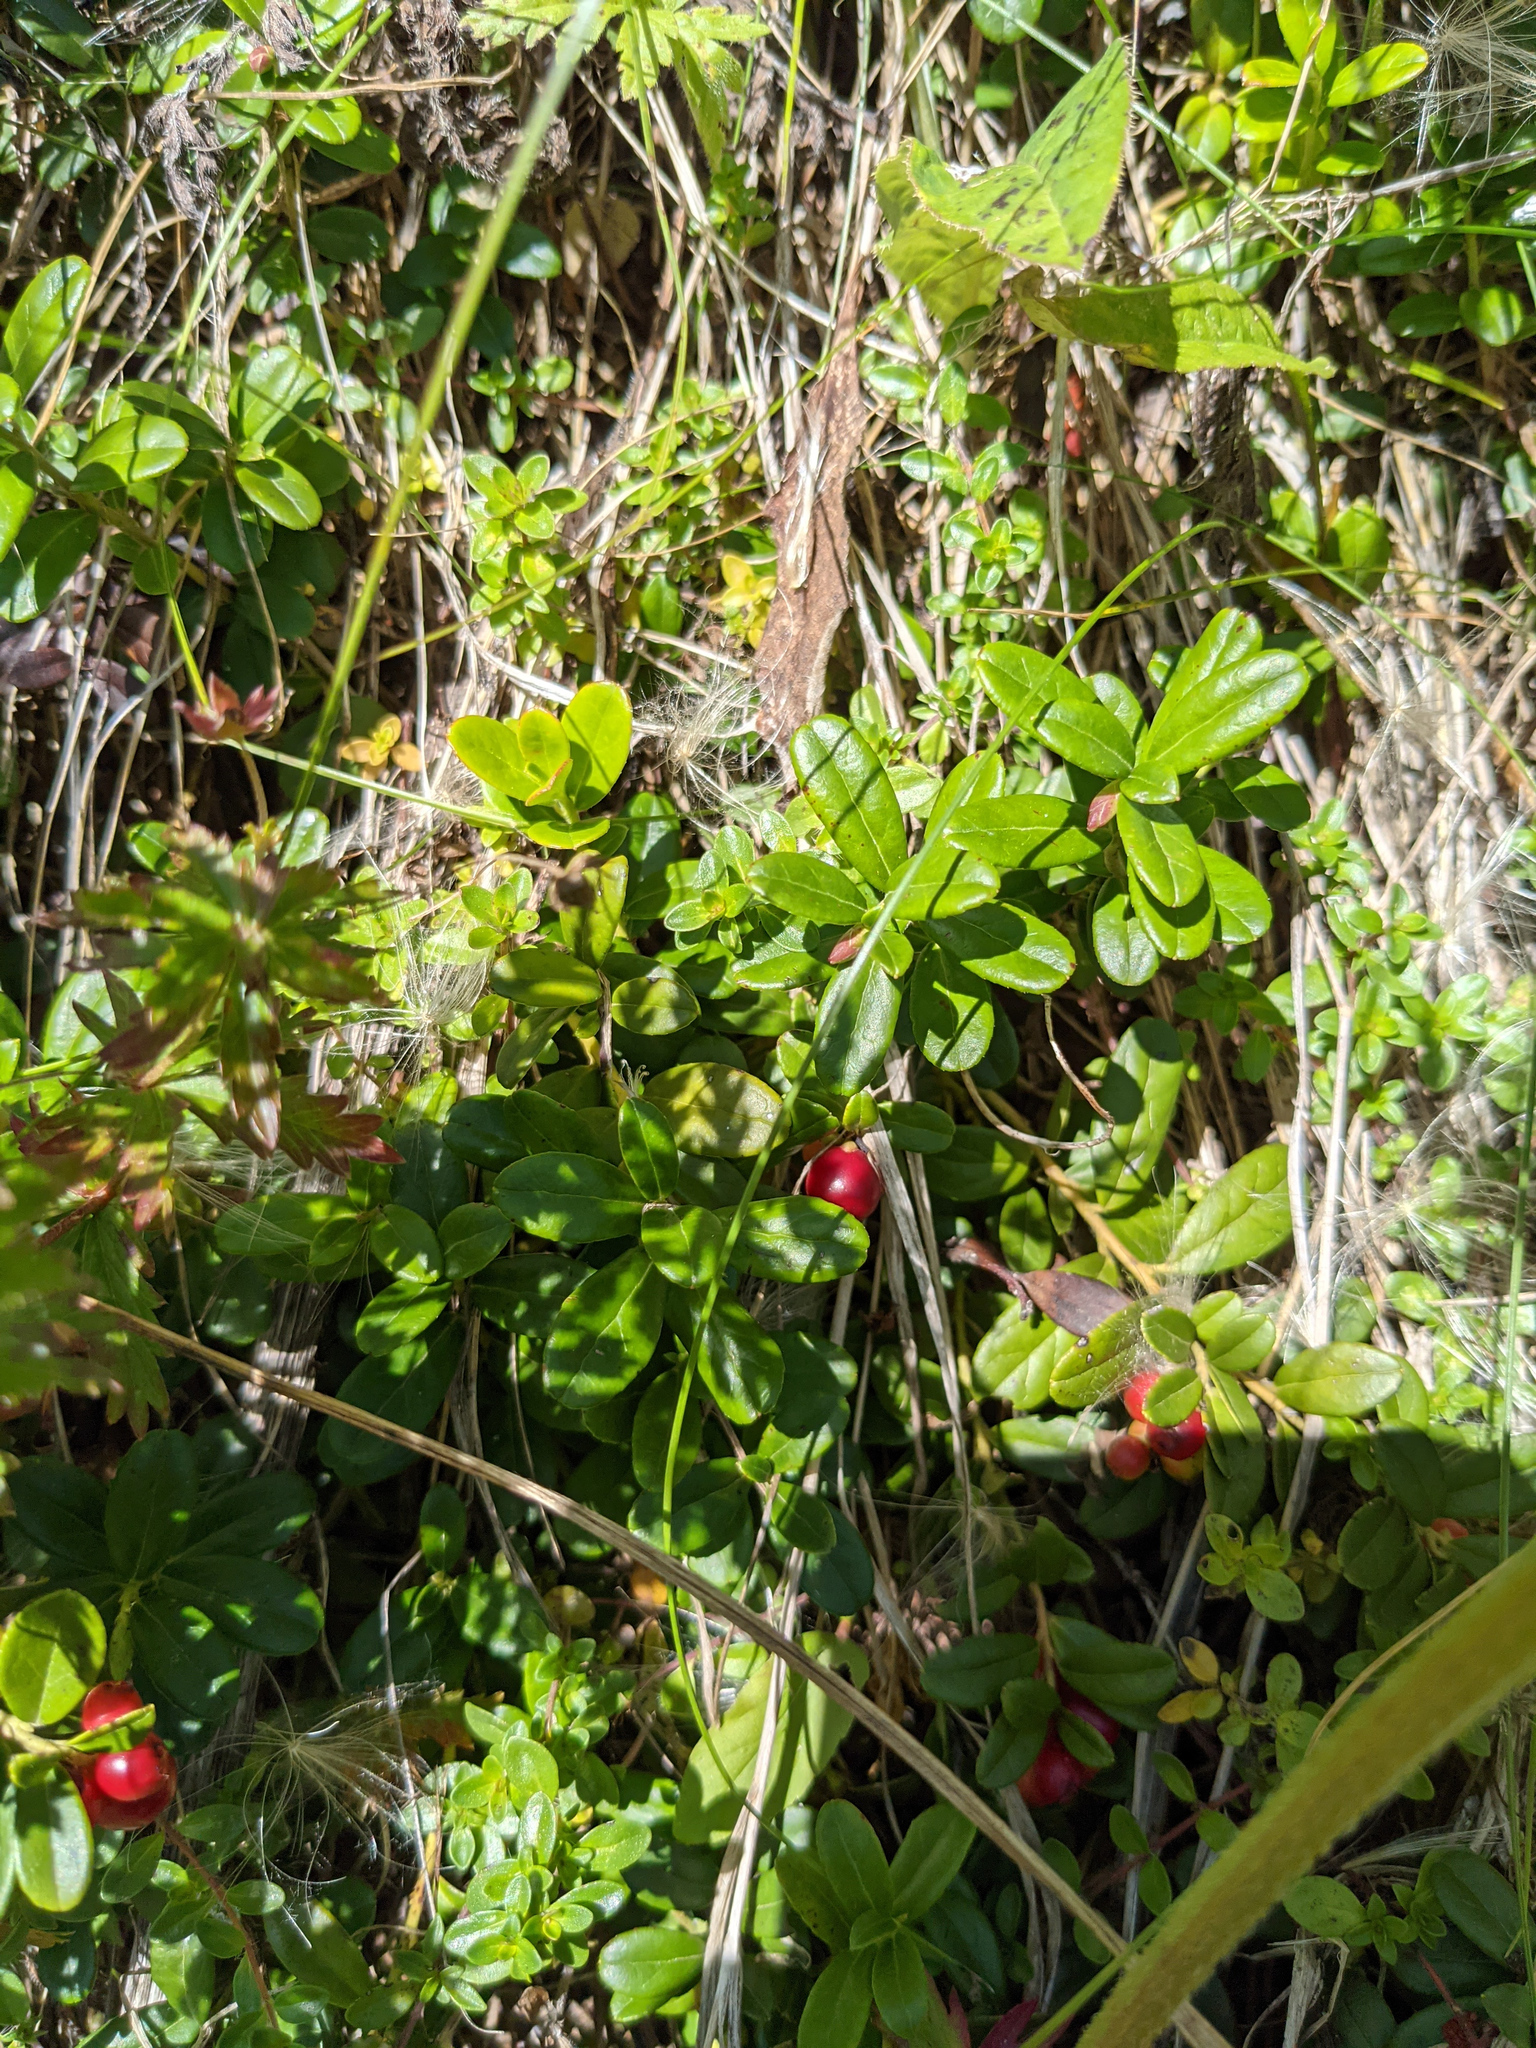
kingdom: Plantae
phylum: Tracheophyta
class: Magnoliopsida
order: Ericales
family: Ericaceae
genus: Vaccinium
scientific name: Vaccinium vitis-idaea
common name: Cowberry
